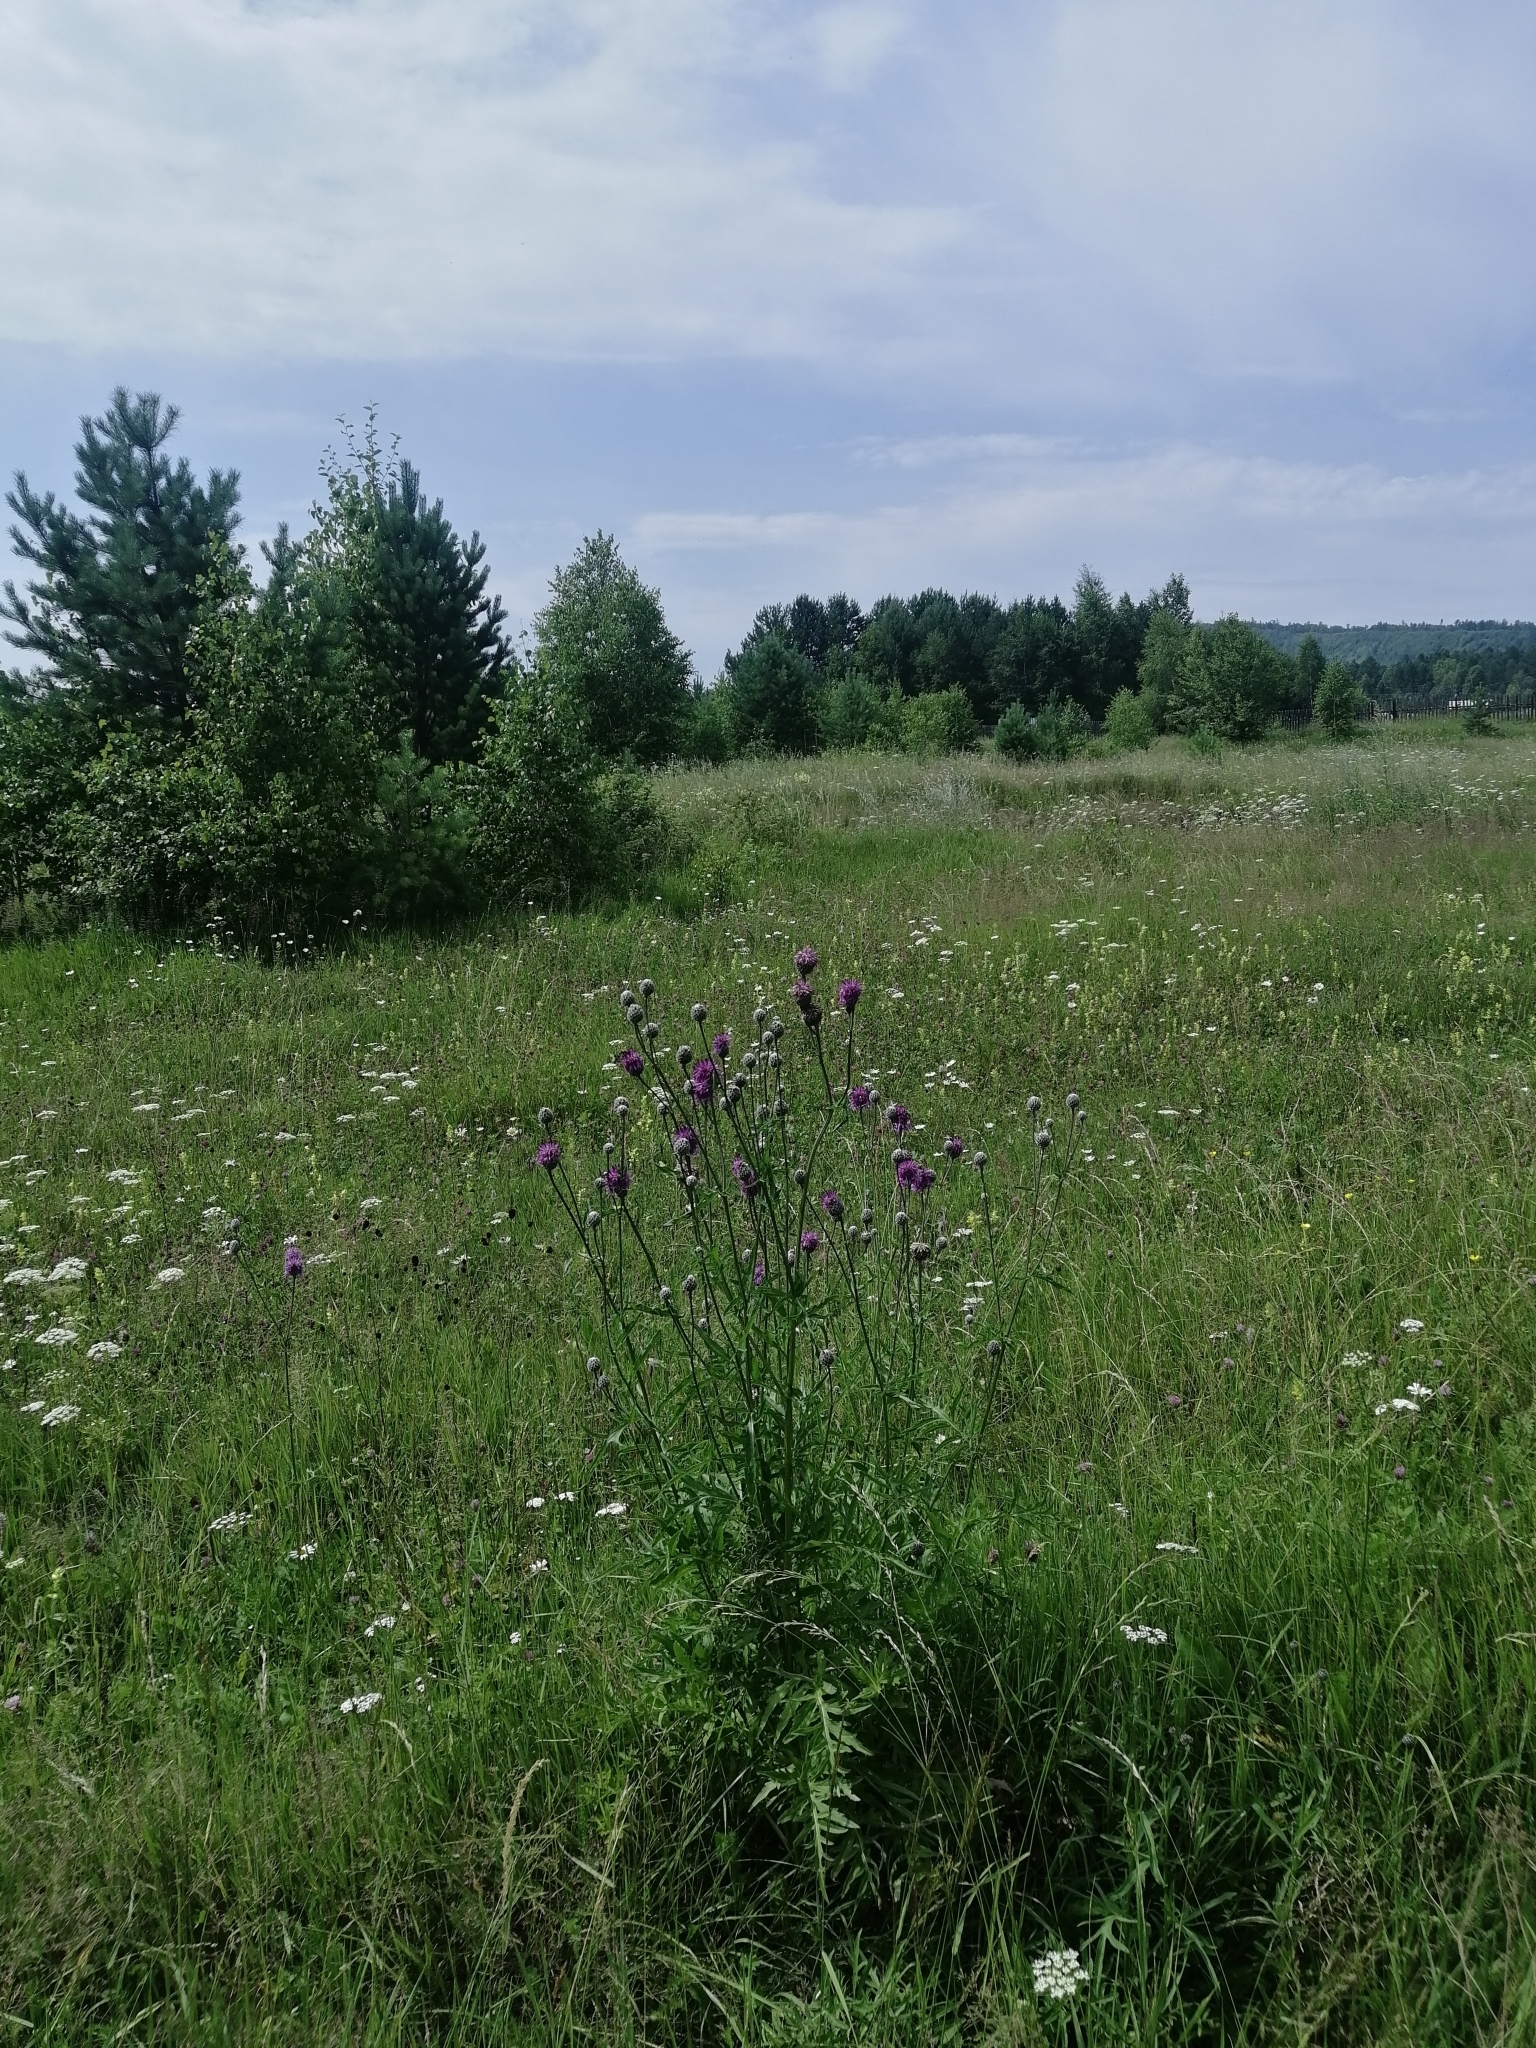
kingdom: Plantae
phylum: Tracheophyta
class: Magnoliopsida
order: Asterales
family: Asteraceae
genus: Centaurea
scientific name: Centaurea scabiosa
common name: Greater knapweed
